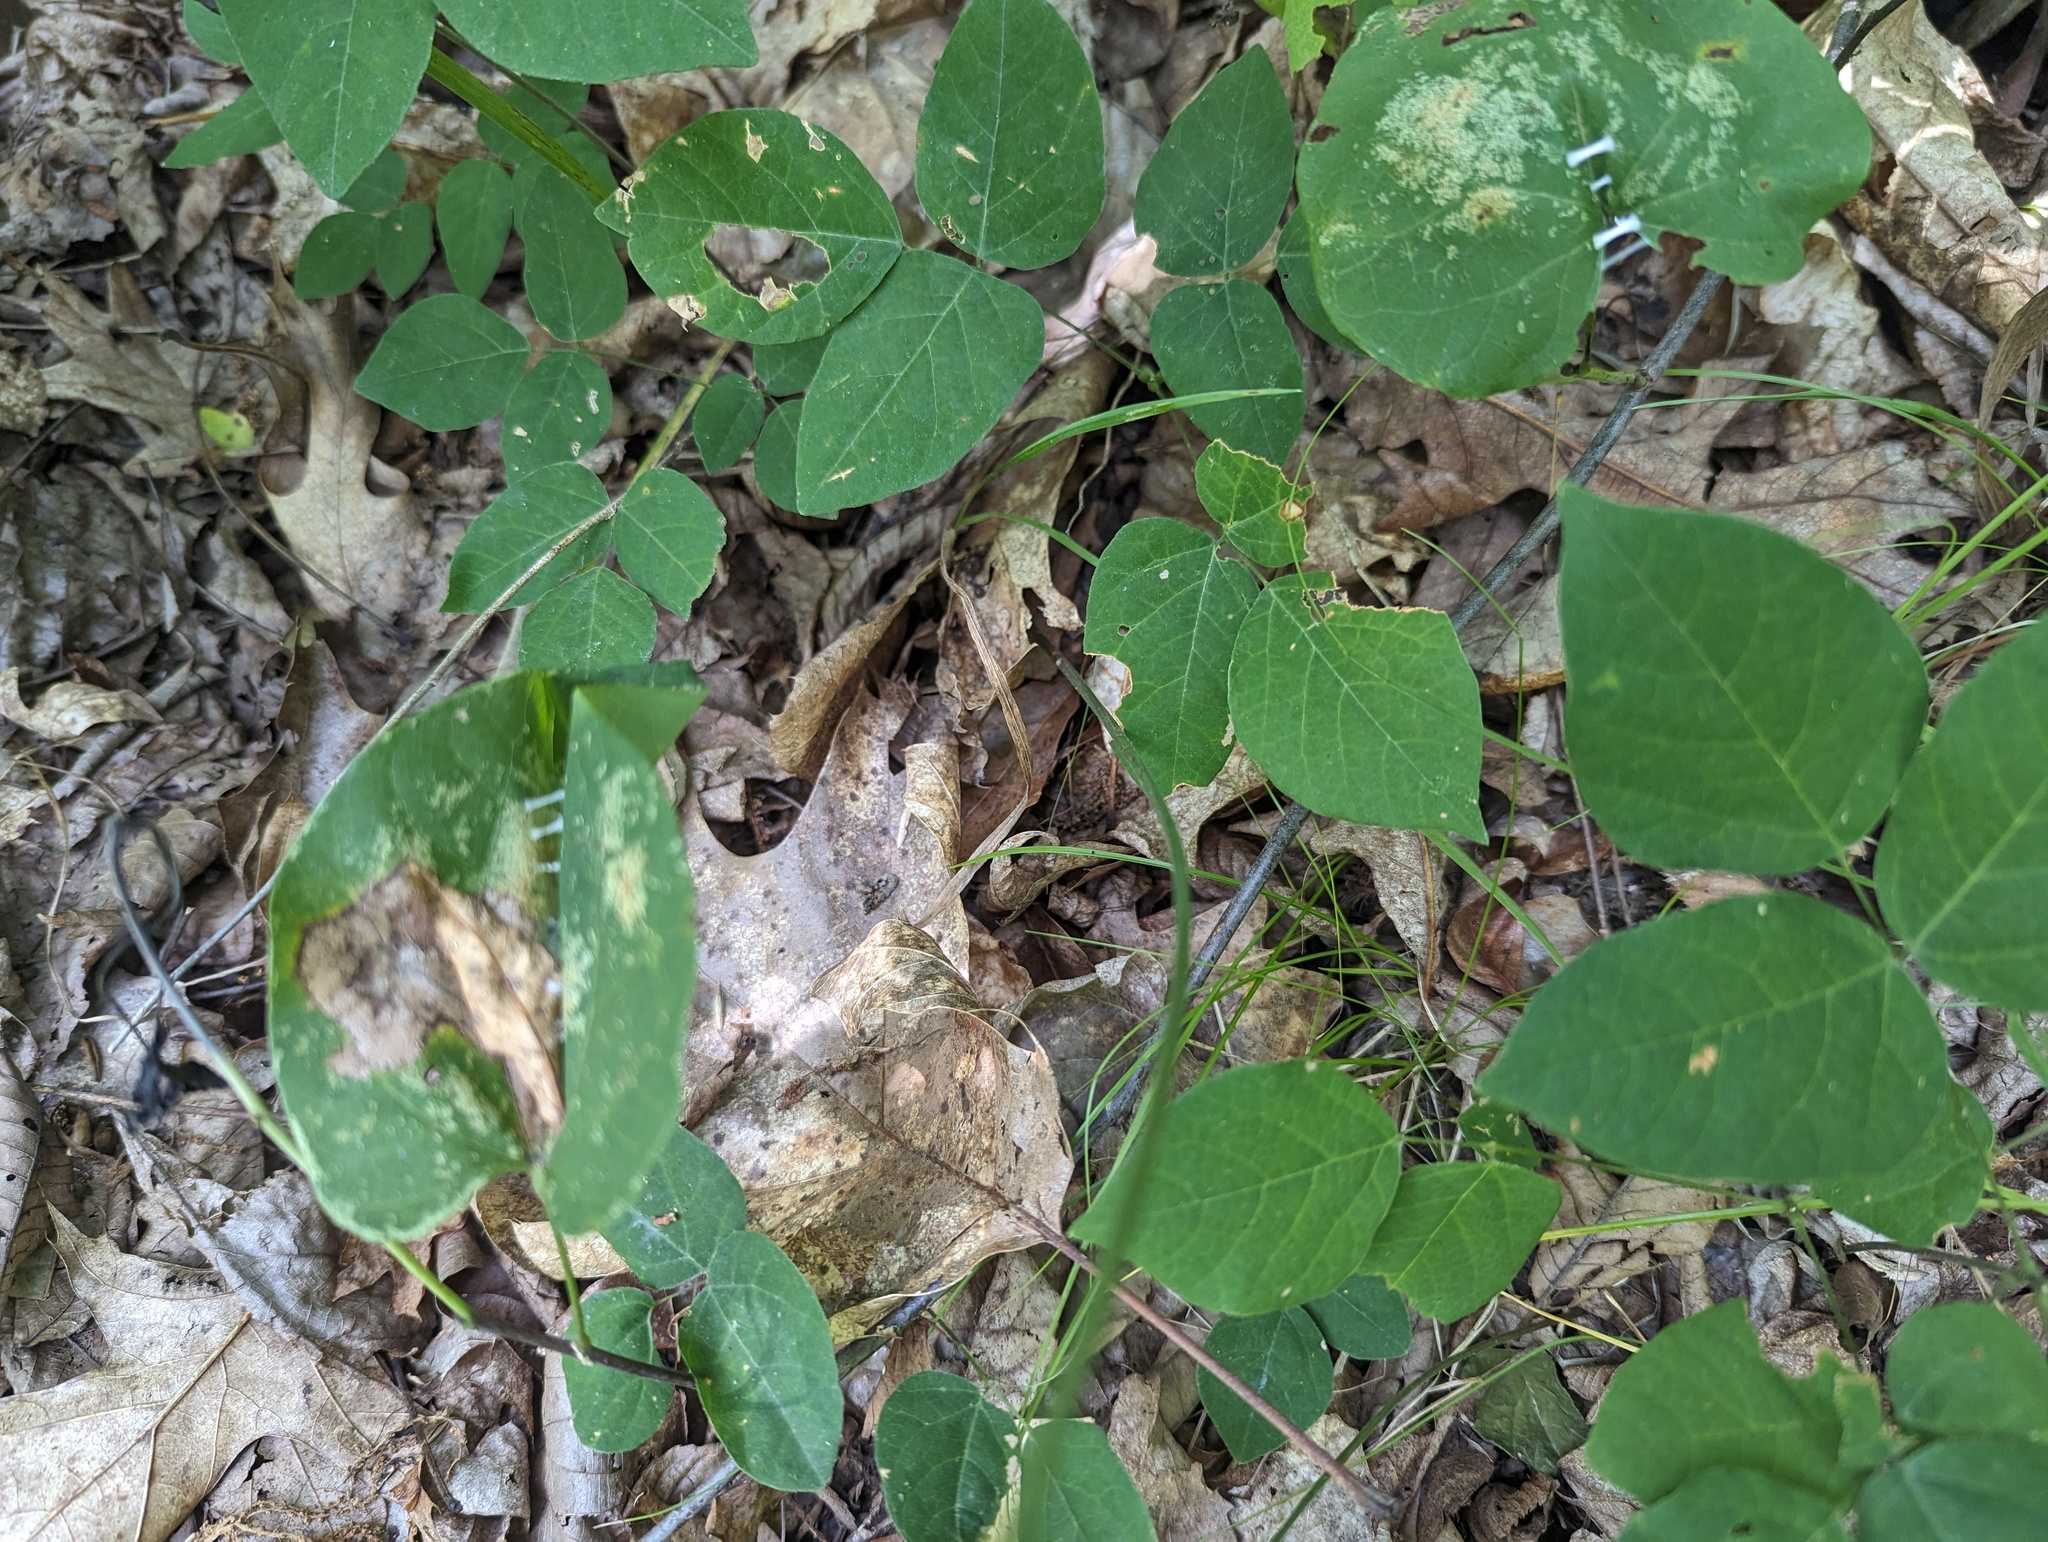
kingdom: Plantae
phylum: Tracheophyta
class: Magnoliopsida
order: Fabales
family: Fabaceae
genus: Hylodesmum
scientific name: Hylodesmum nudiflorum
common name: Bare-stemmed tick-trefoil
